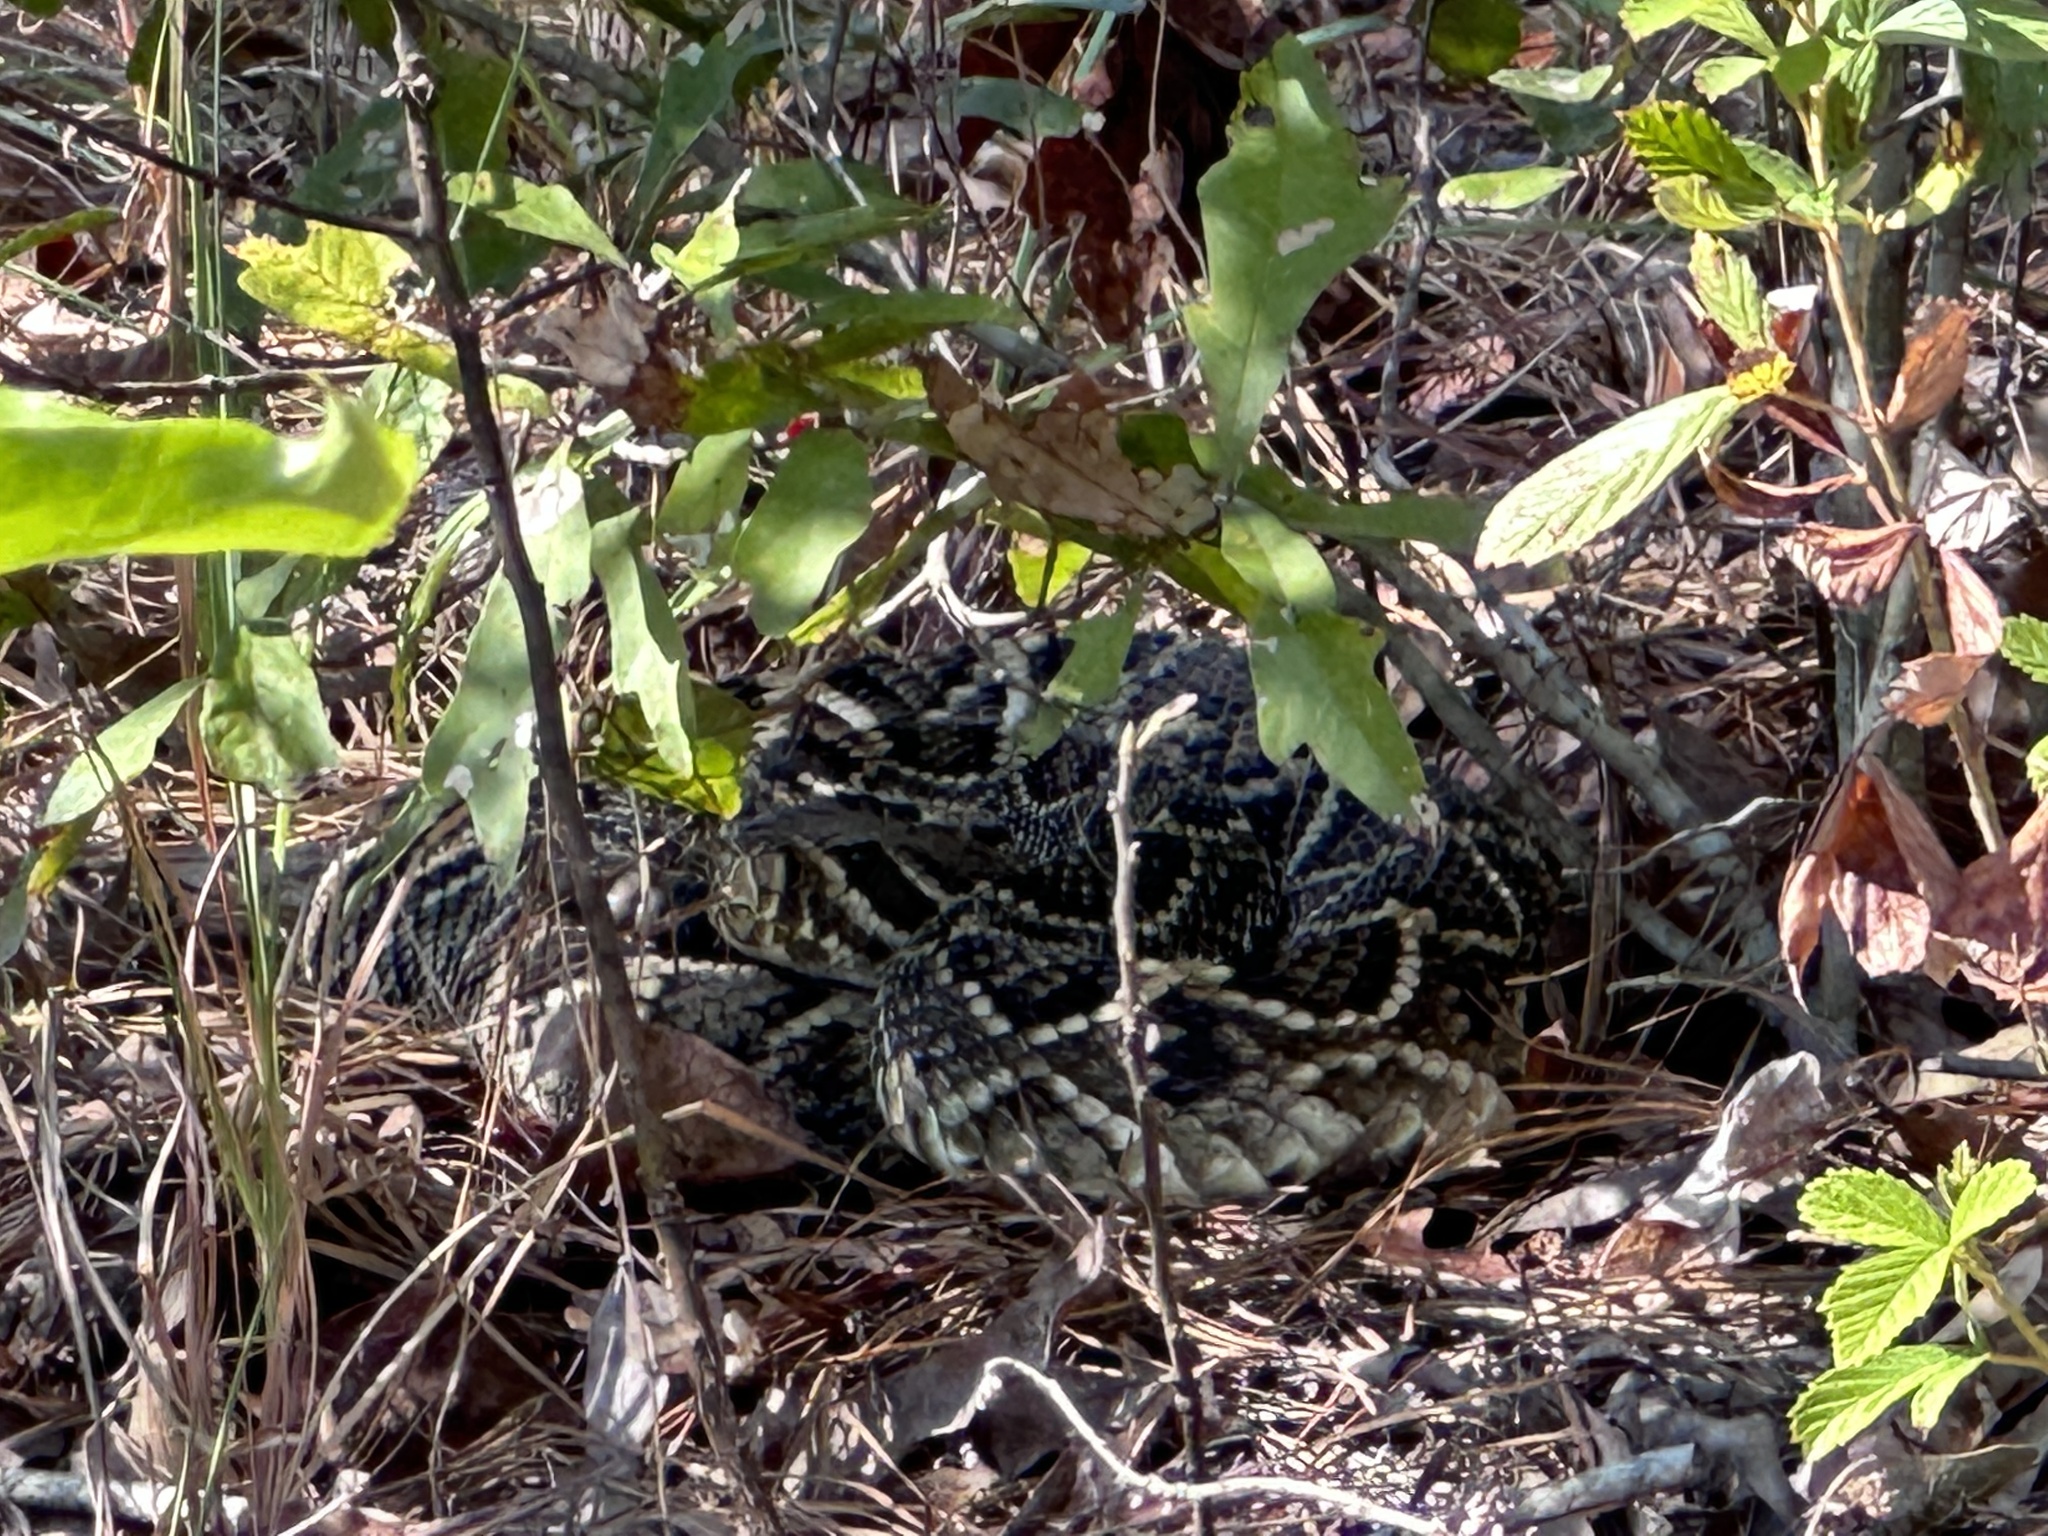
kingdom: Animalia
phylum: Chordata
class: Squamata
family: Viperidae
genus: Crotalus
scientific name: Crotalus adamanteus
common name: Eastern diamondback rattlesnake
